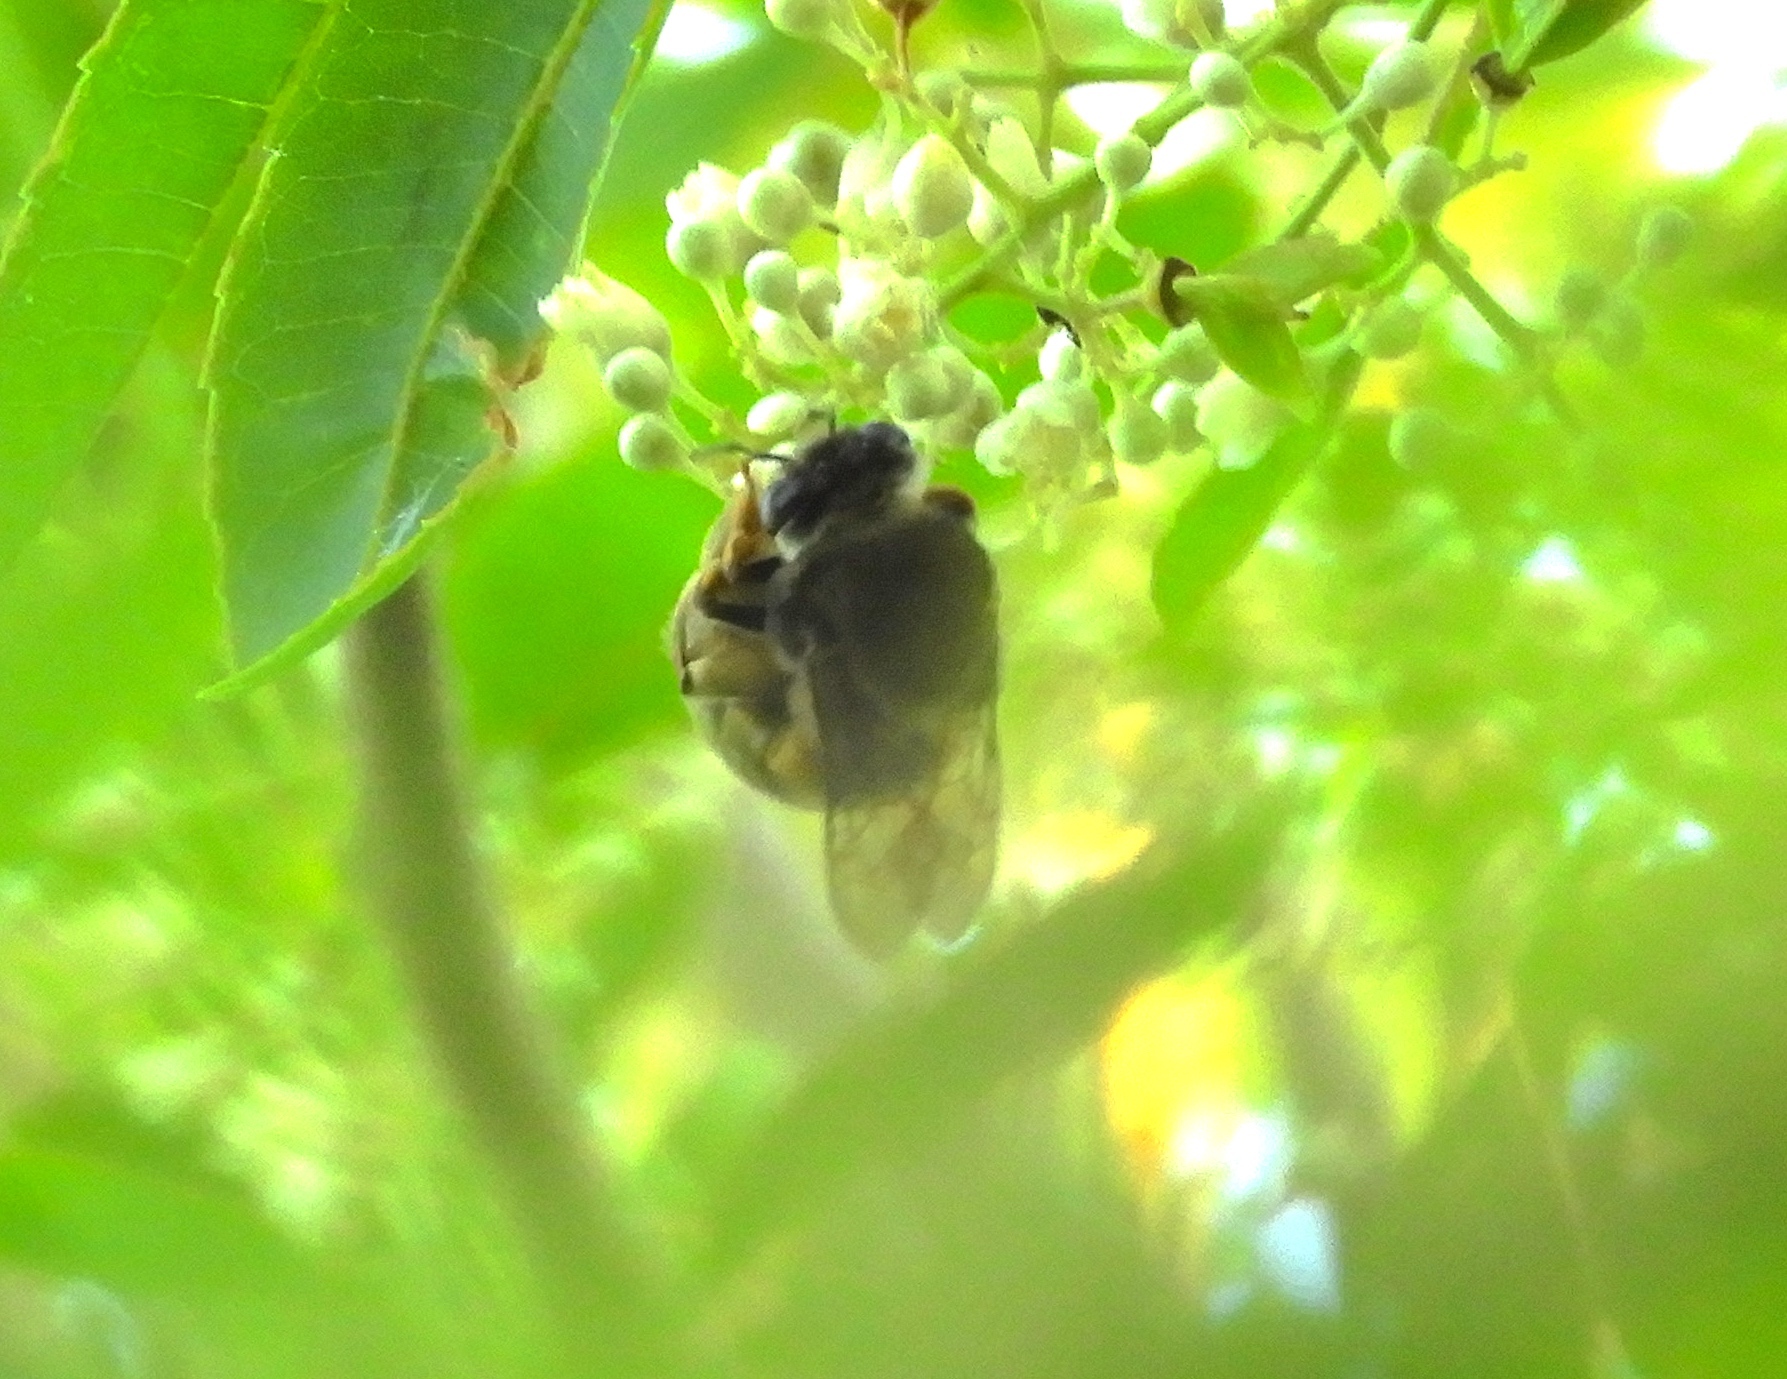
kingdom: Animalia
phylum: Arthropoda
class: Insecta
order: Hymenoptera
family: Colletidae
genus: Ptiloglossa
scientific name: Ptiloglossa
